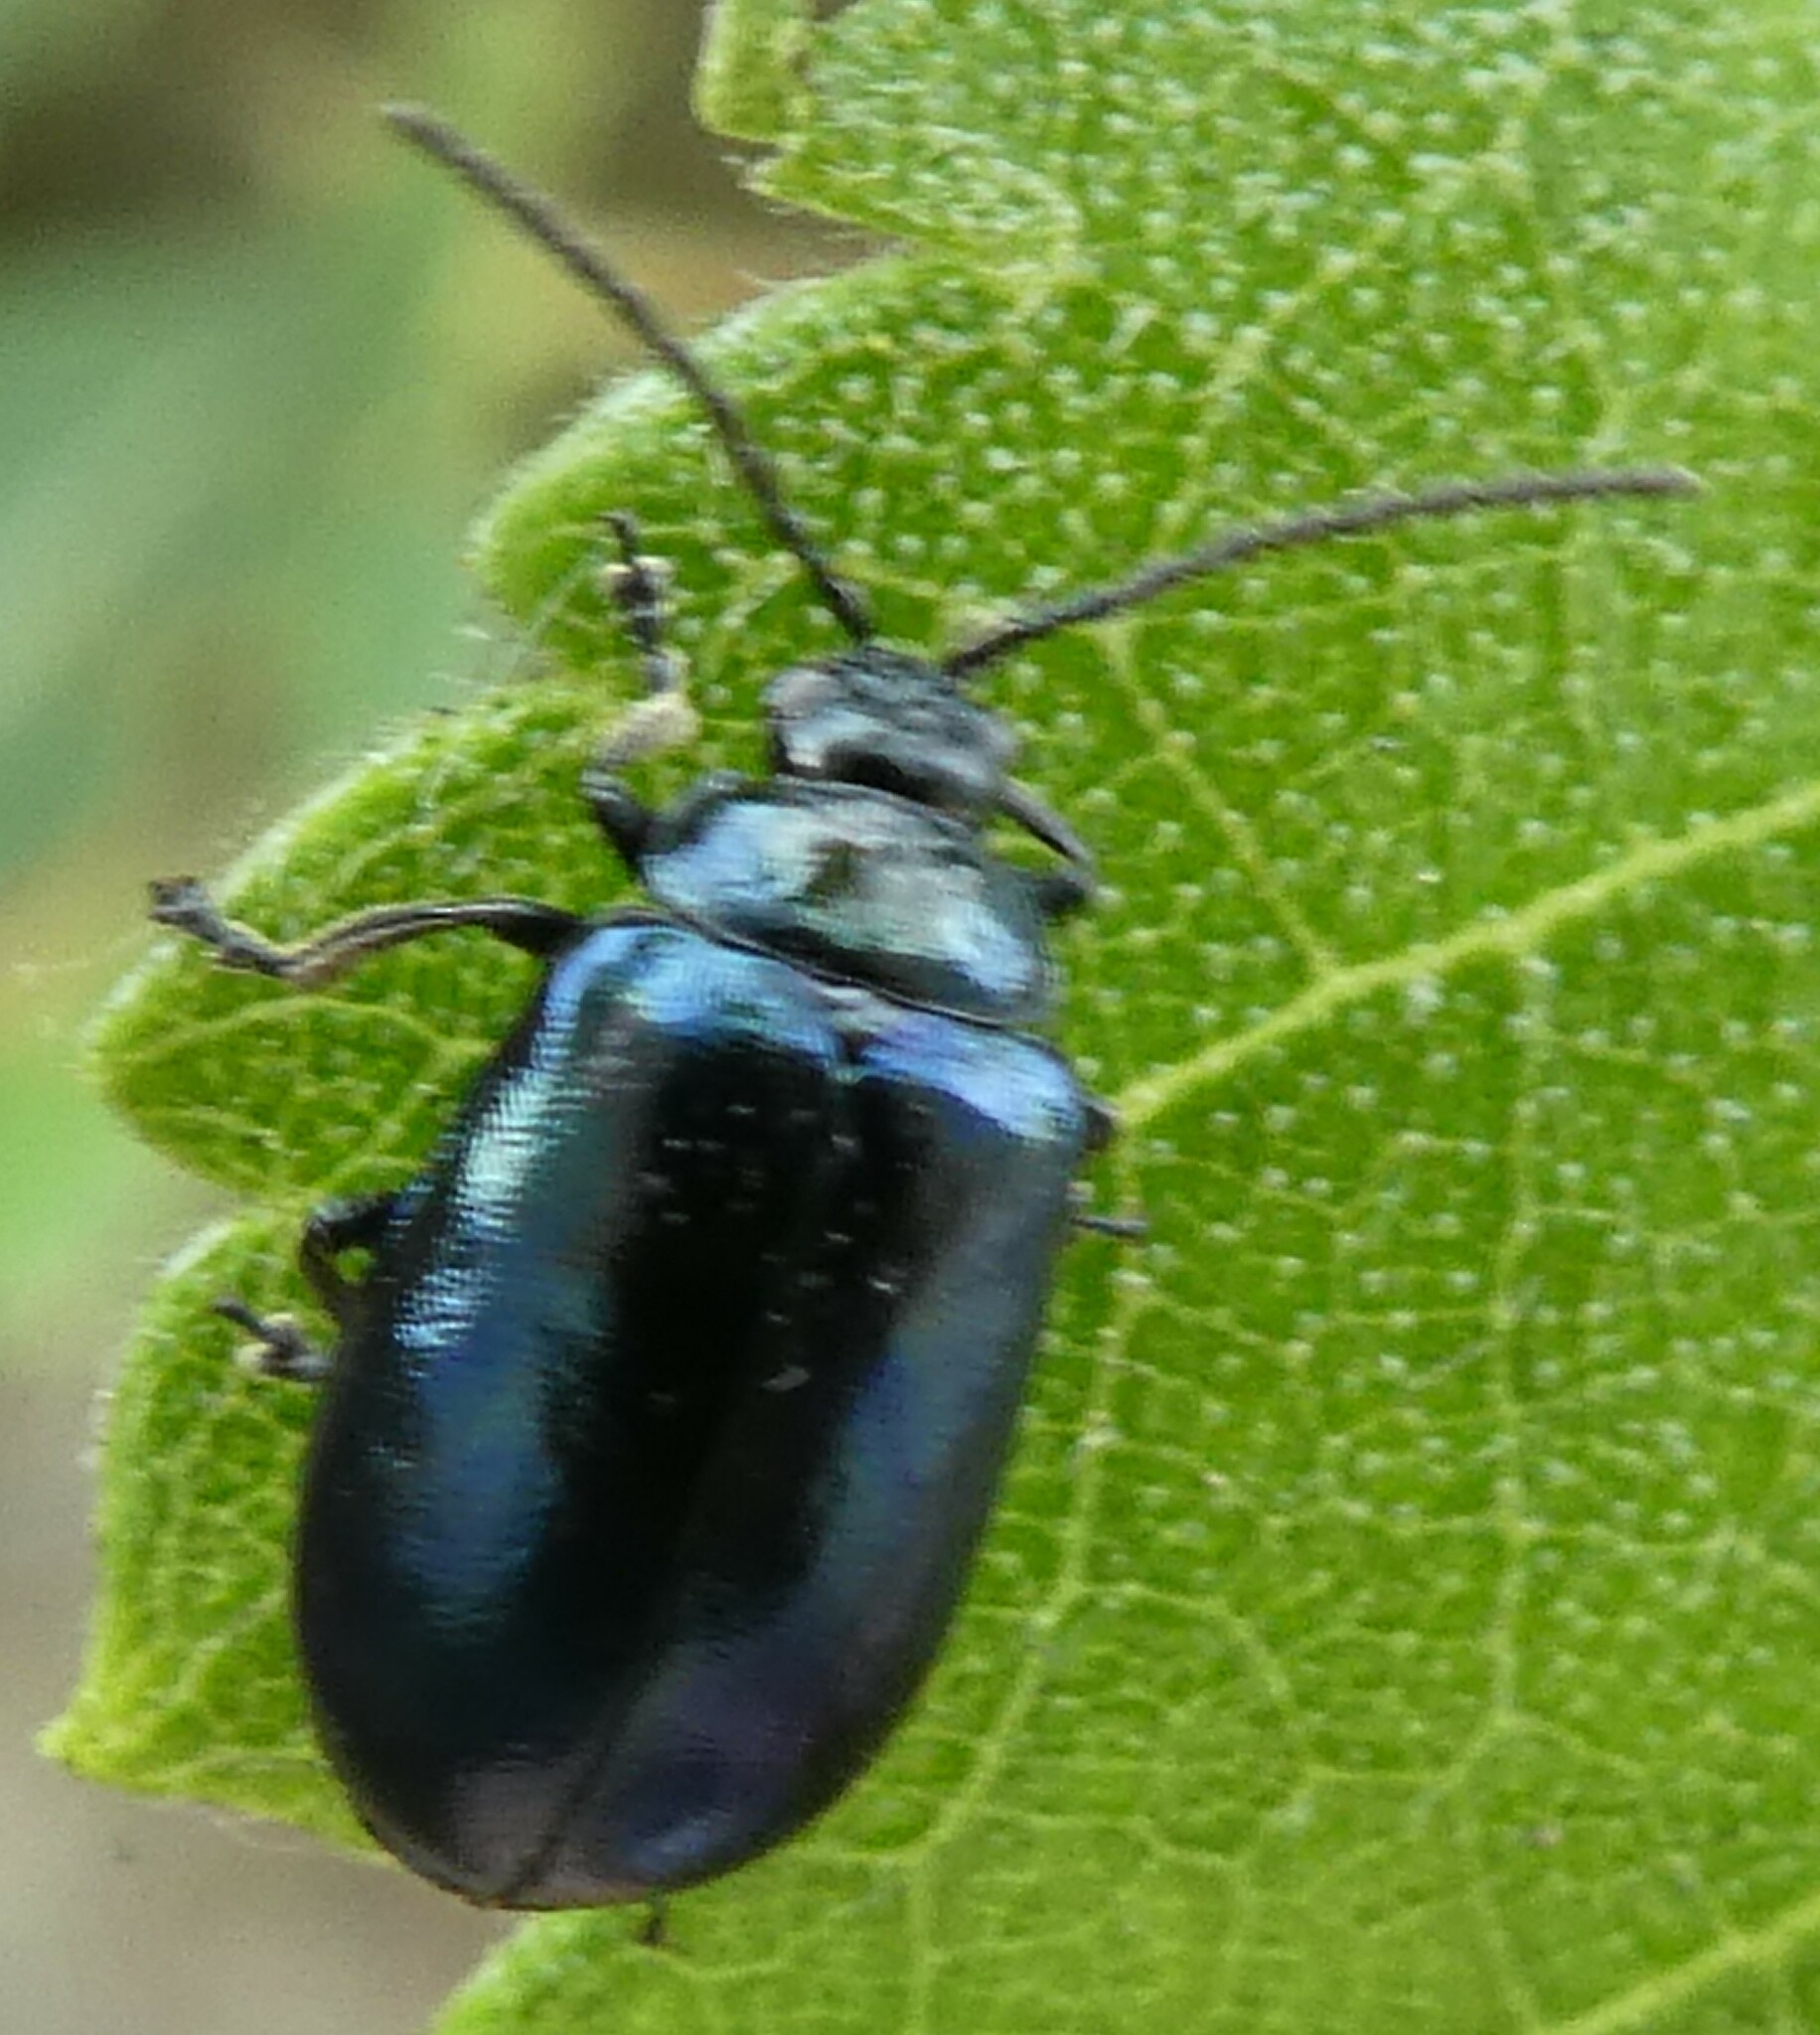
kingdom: Animalia
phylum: Arthropoda
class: Insecta
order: Coleoptera
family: Chrysomelidae
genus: Agelastica
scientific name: Agelastica alni
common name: Alder leaf beetle
